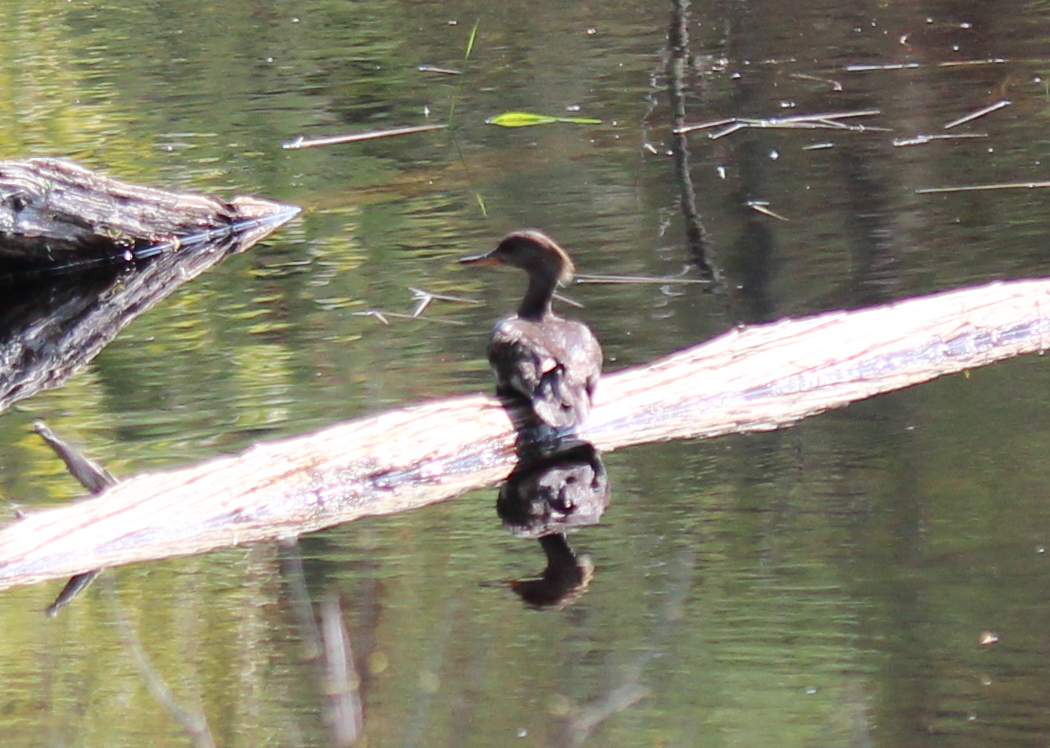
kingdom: Animalia
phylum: Chordata
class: Aves
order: Anseriformes
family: Anatidae
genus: Lophodytes
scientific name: Lophodytes cucullatus
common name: Hooded merganser
